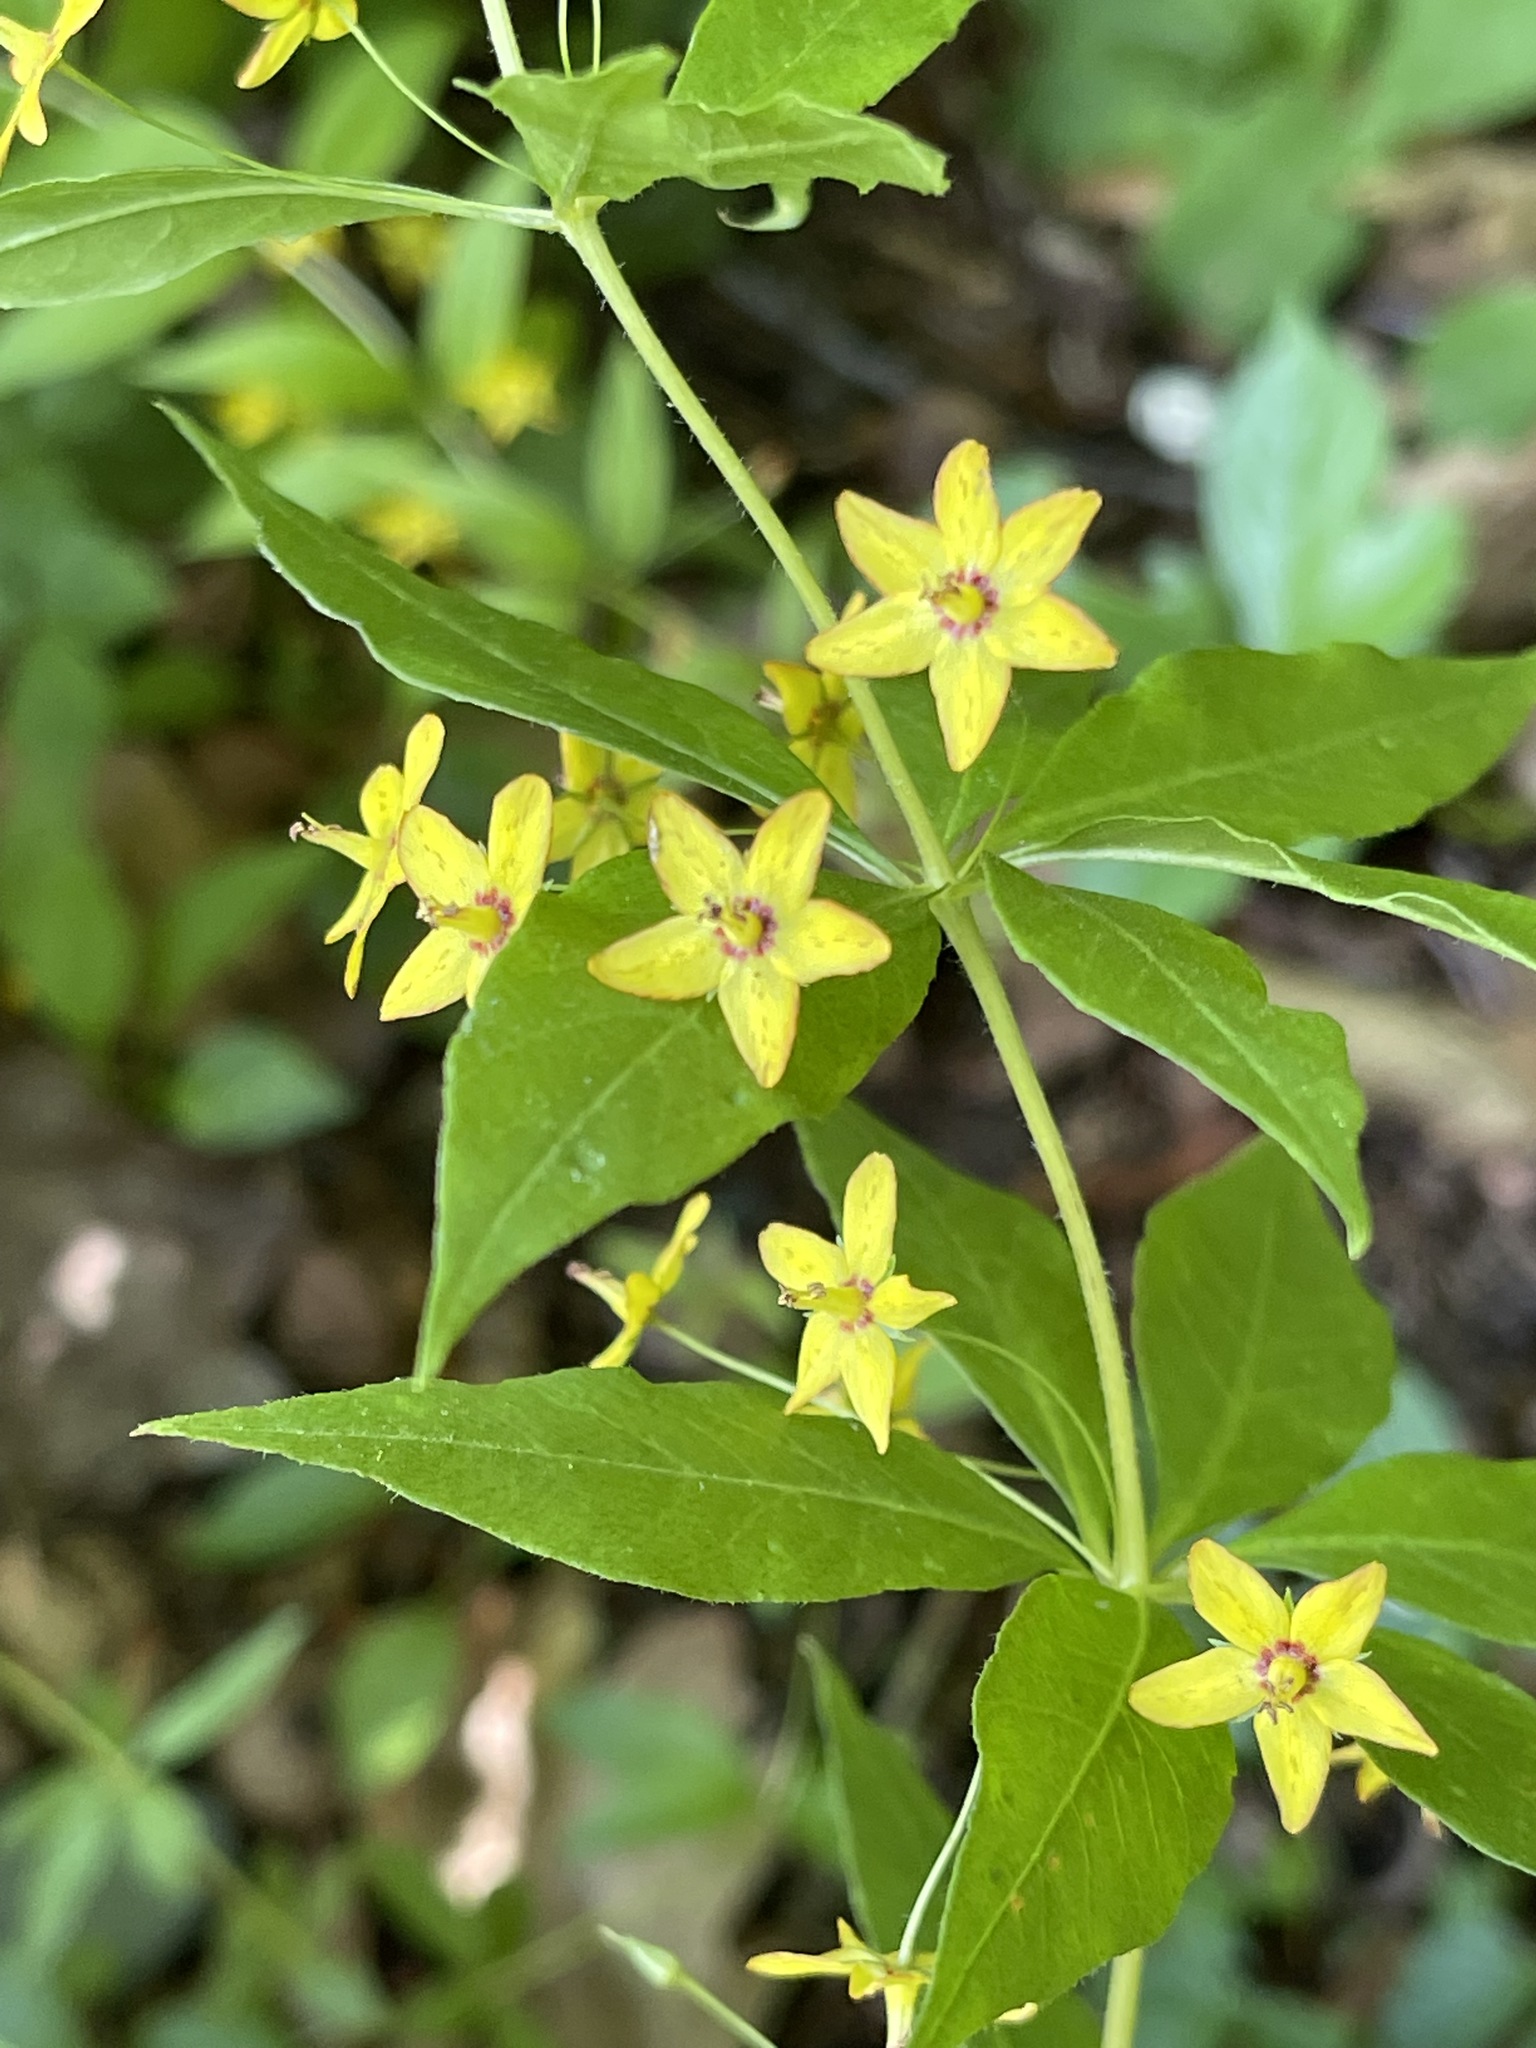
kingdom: Plantae
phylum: Tracheophyta
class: Magnoliopsida
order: Ericales
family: Primulaceae
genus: Lysimachia
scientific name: Lysimachia quadrifolia
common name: Whorled loosestrife
